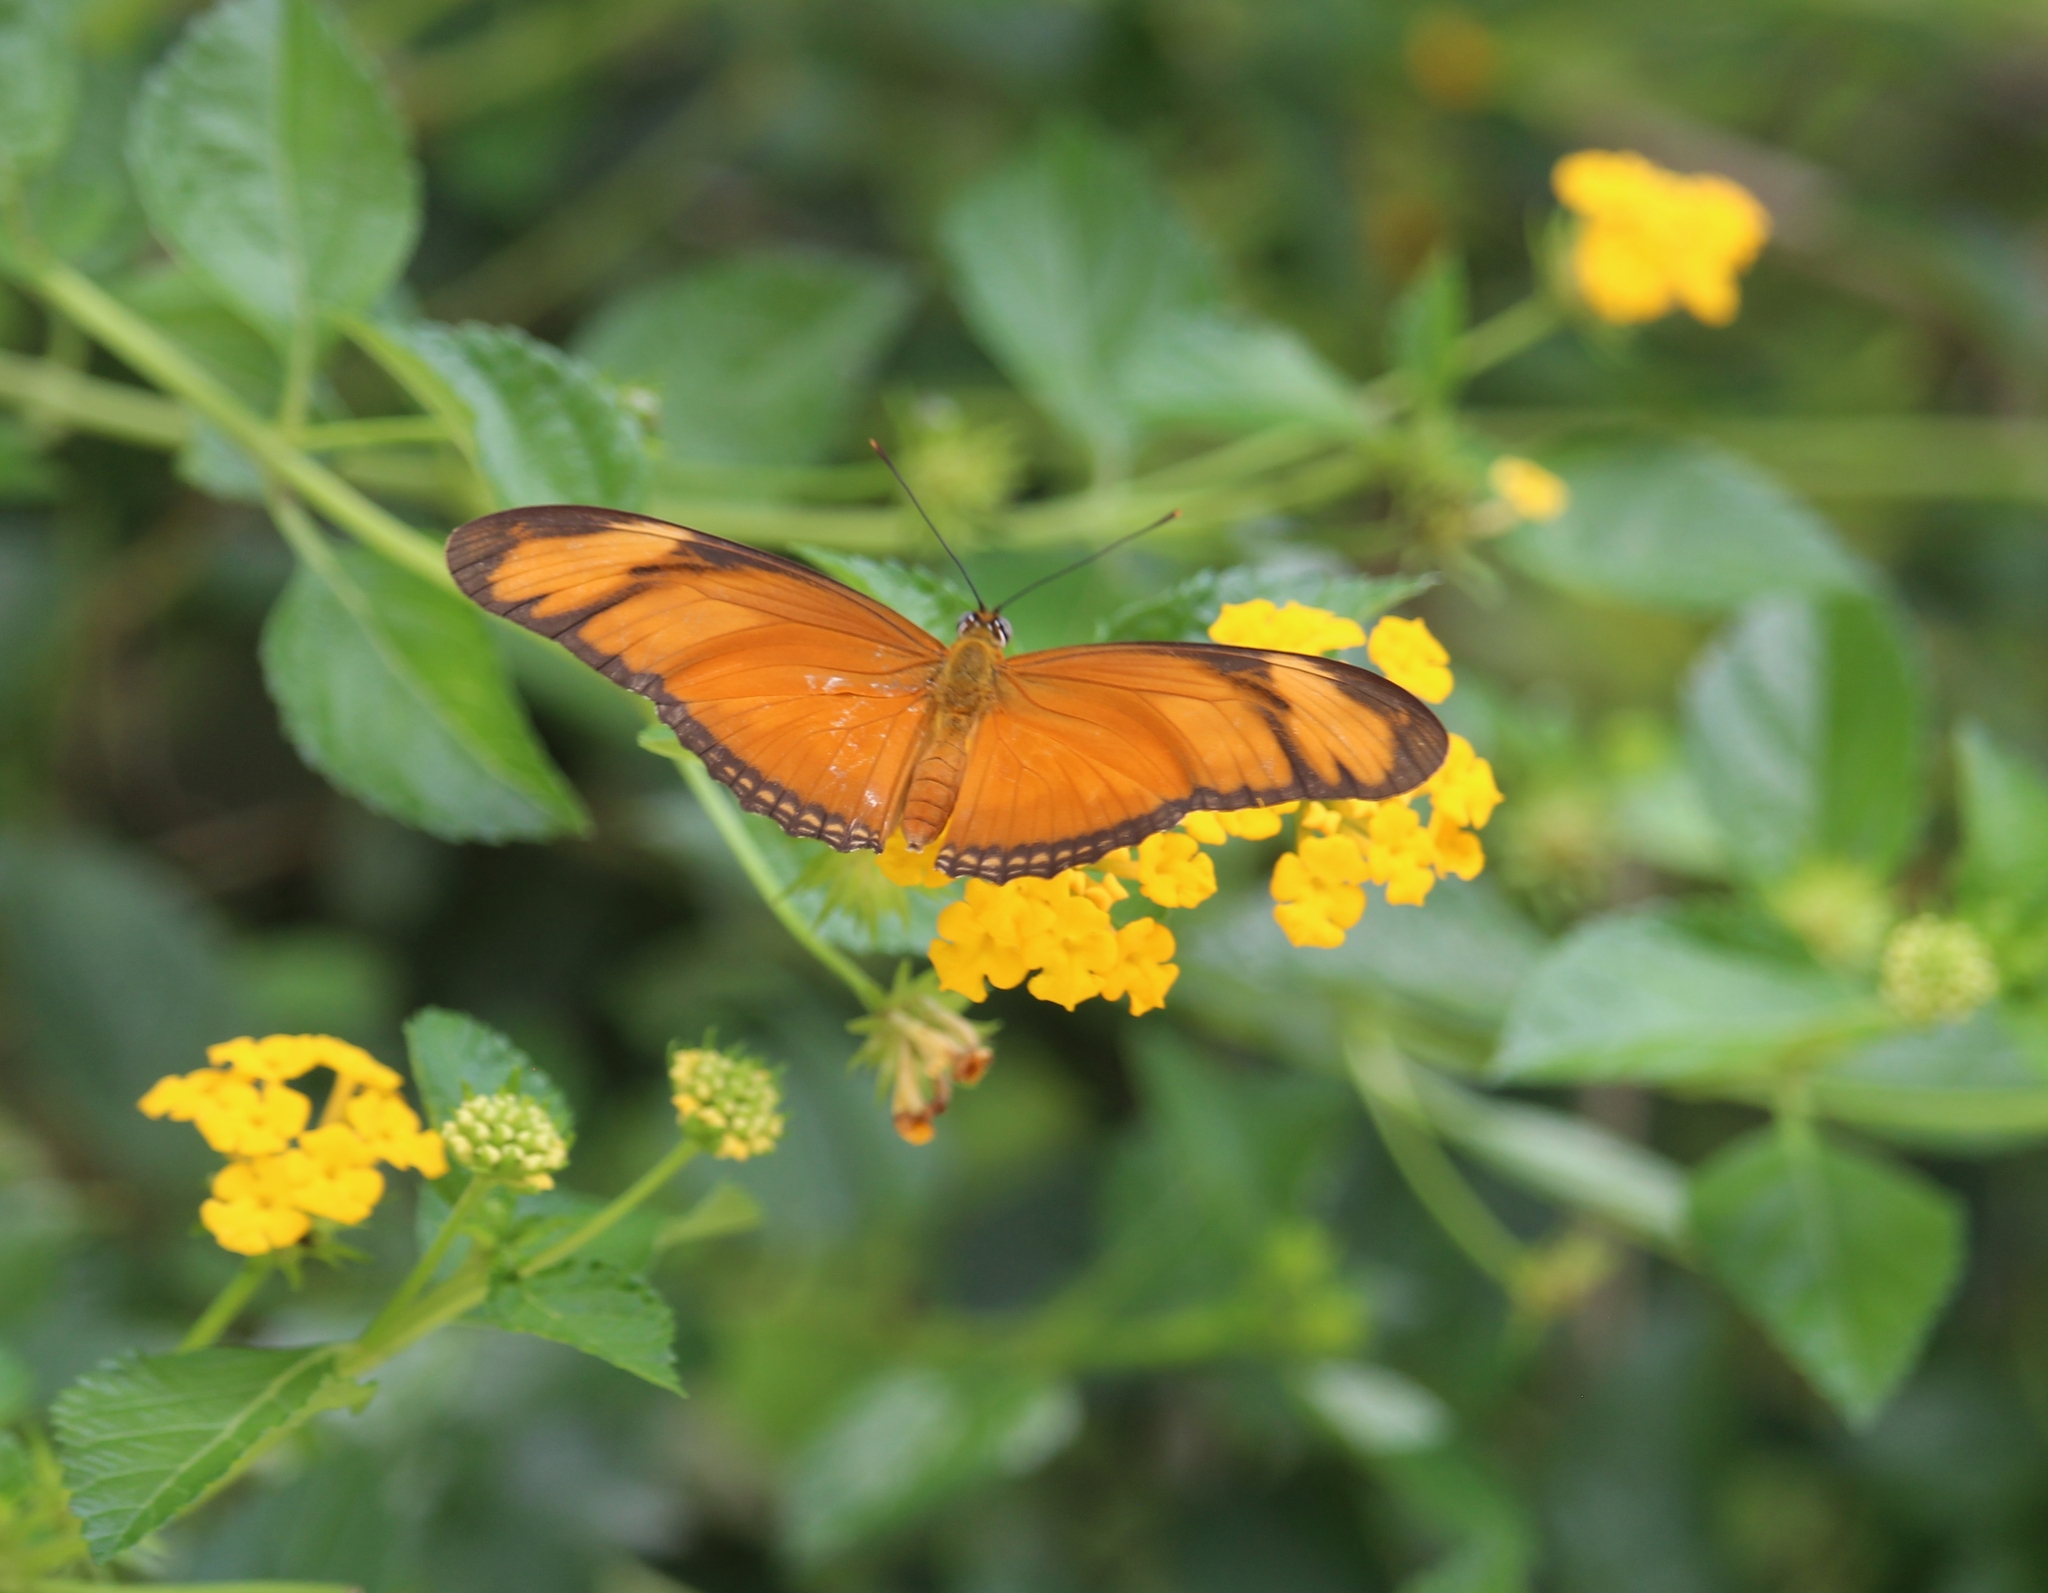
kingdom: Animalia
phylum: Arthropoda
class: Insecta
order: Lepidoptera
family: Nymphalidae
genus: Dryas
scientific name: Dryas iulia
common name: Flambeau
